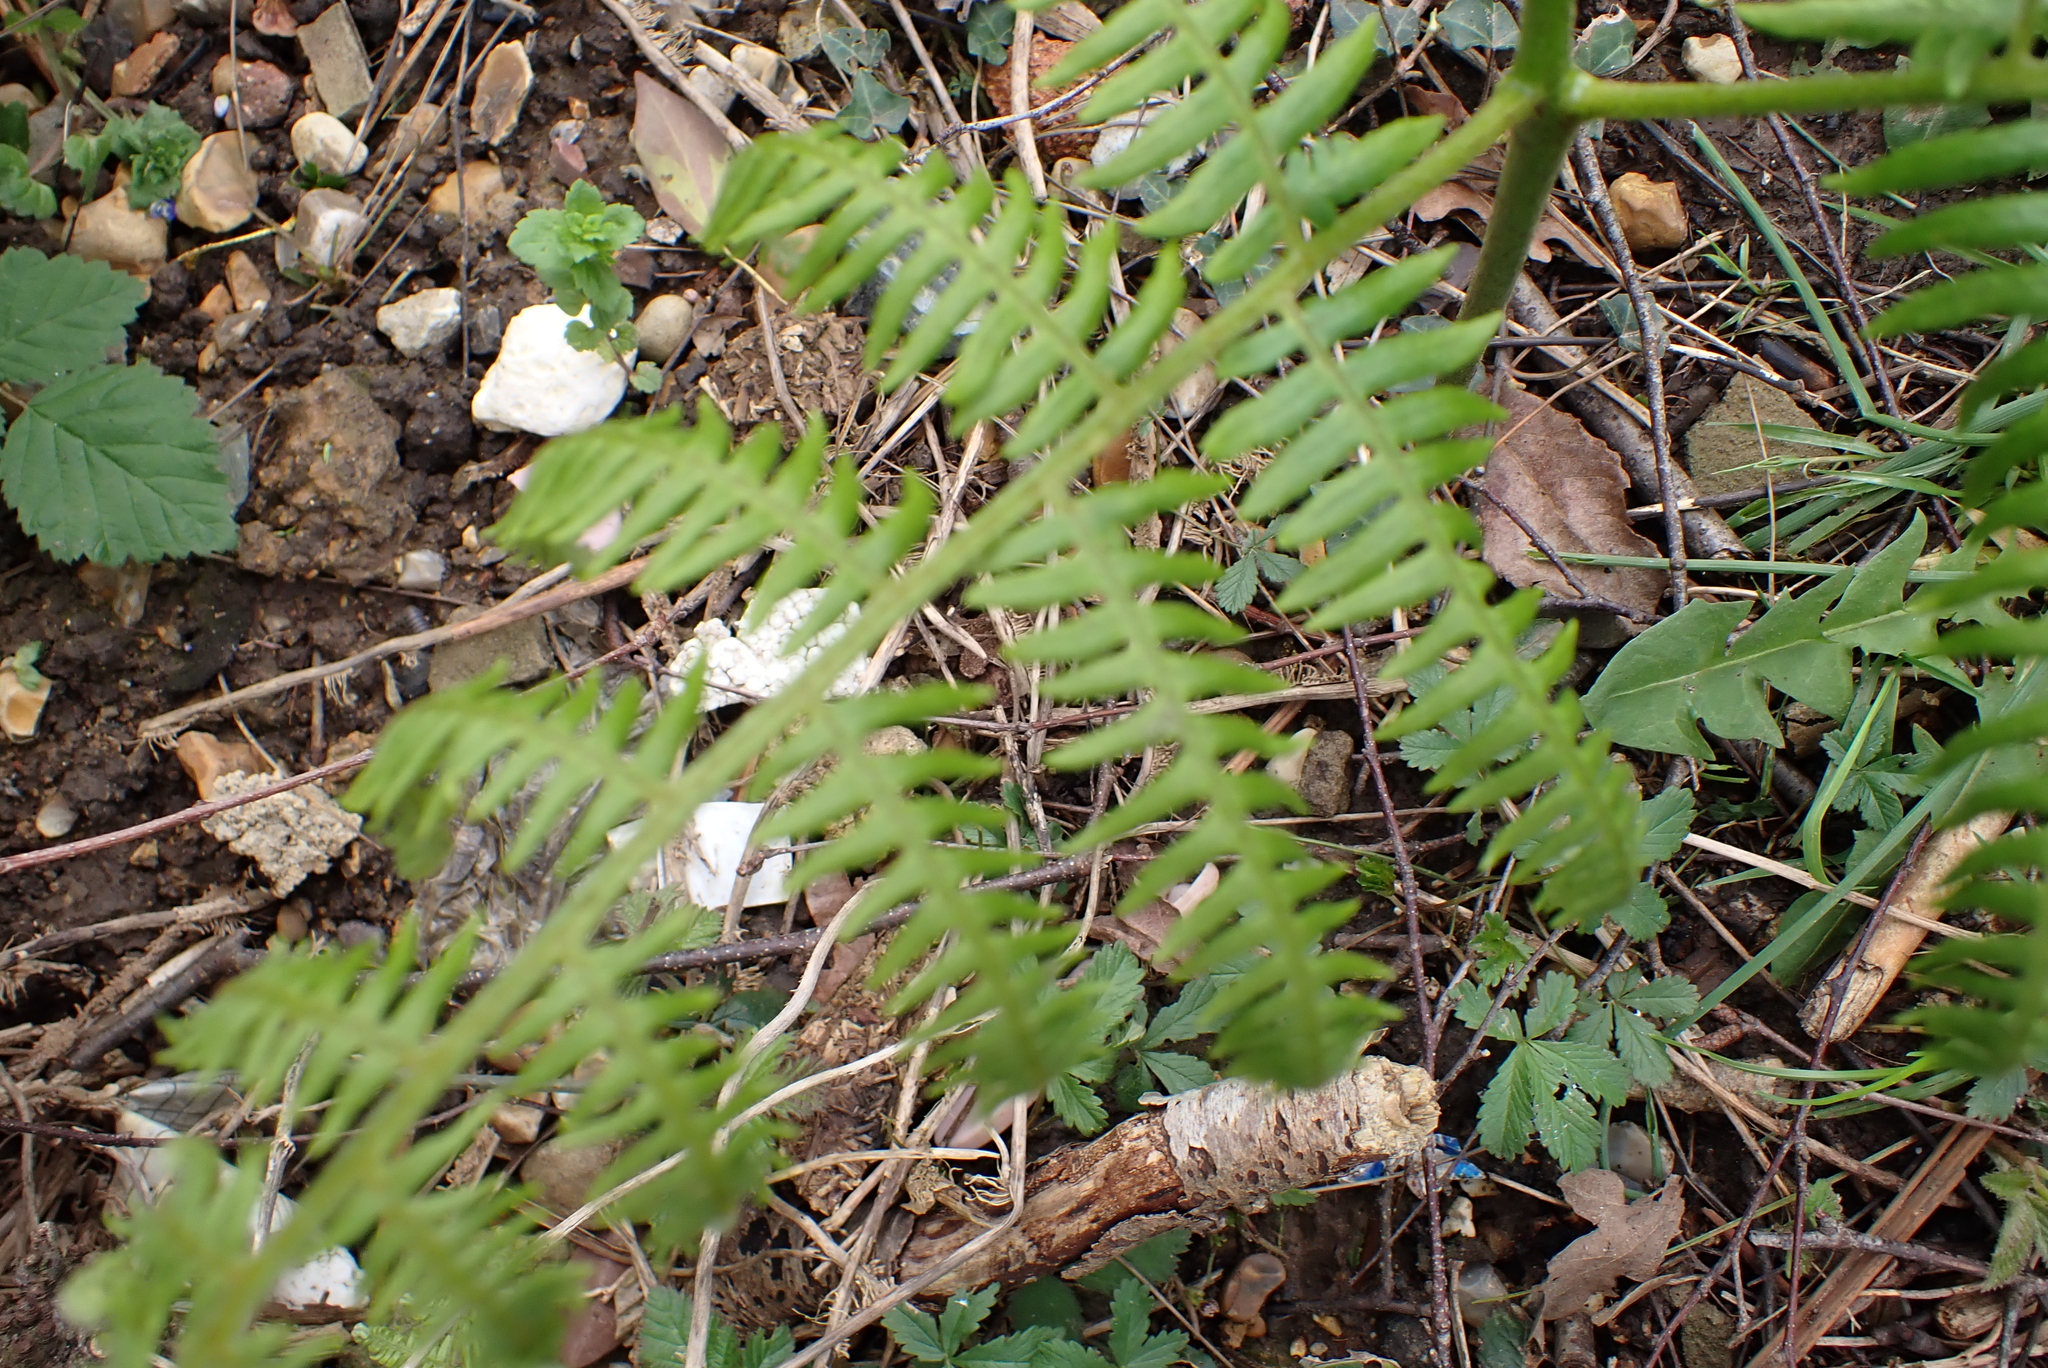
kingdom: Plantae
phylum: Tracheophyta
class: Polypodiopsida
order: Polypodiales
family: Dennstaedtiaceae
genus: Pteridium
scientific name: Pteridium aquilinum
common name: Bracken
